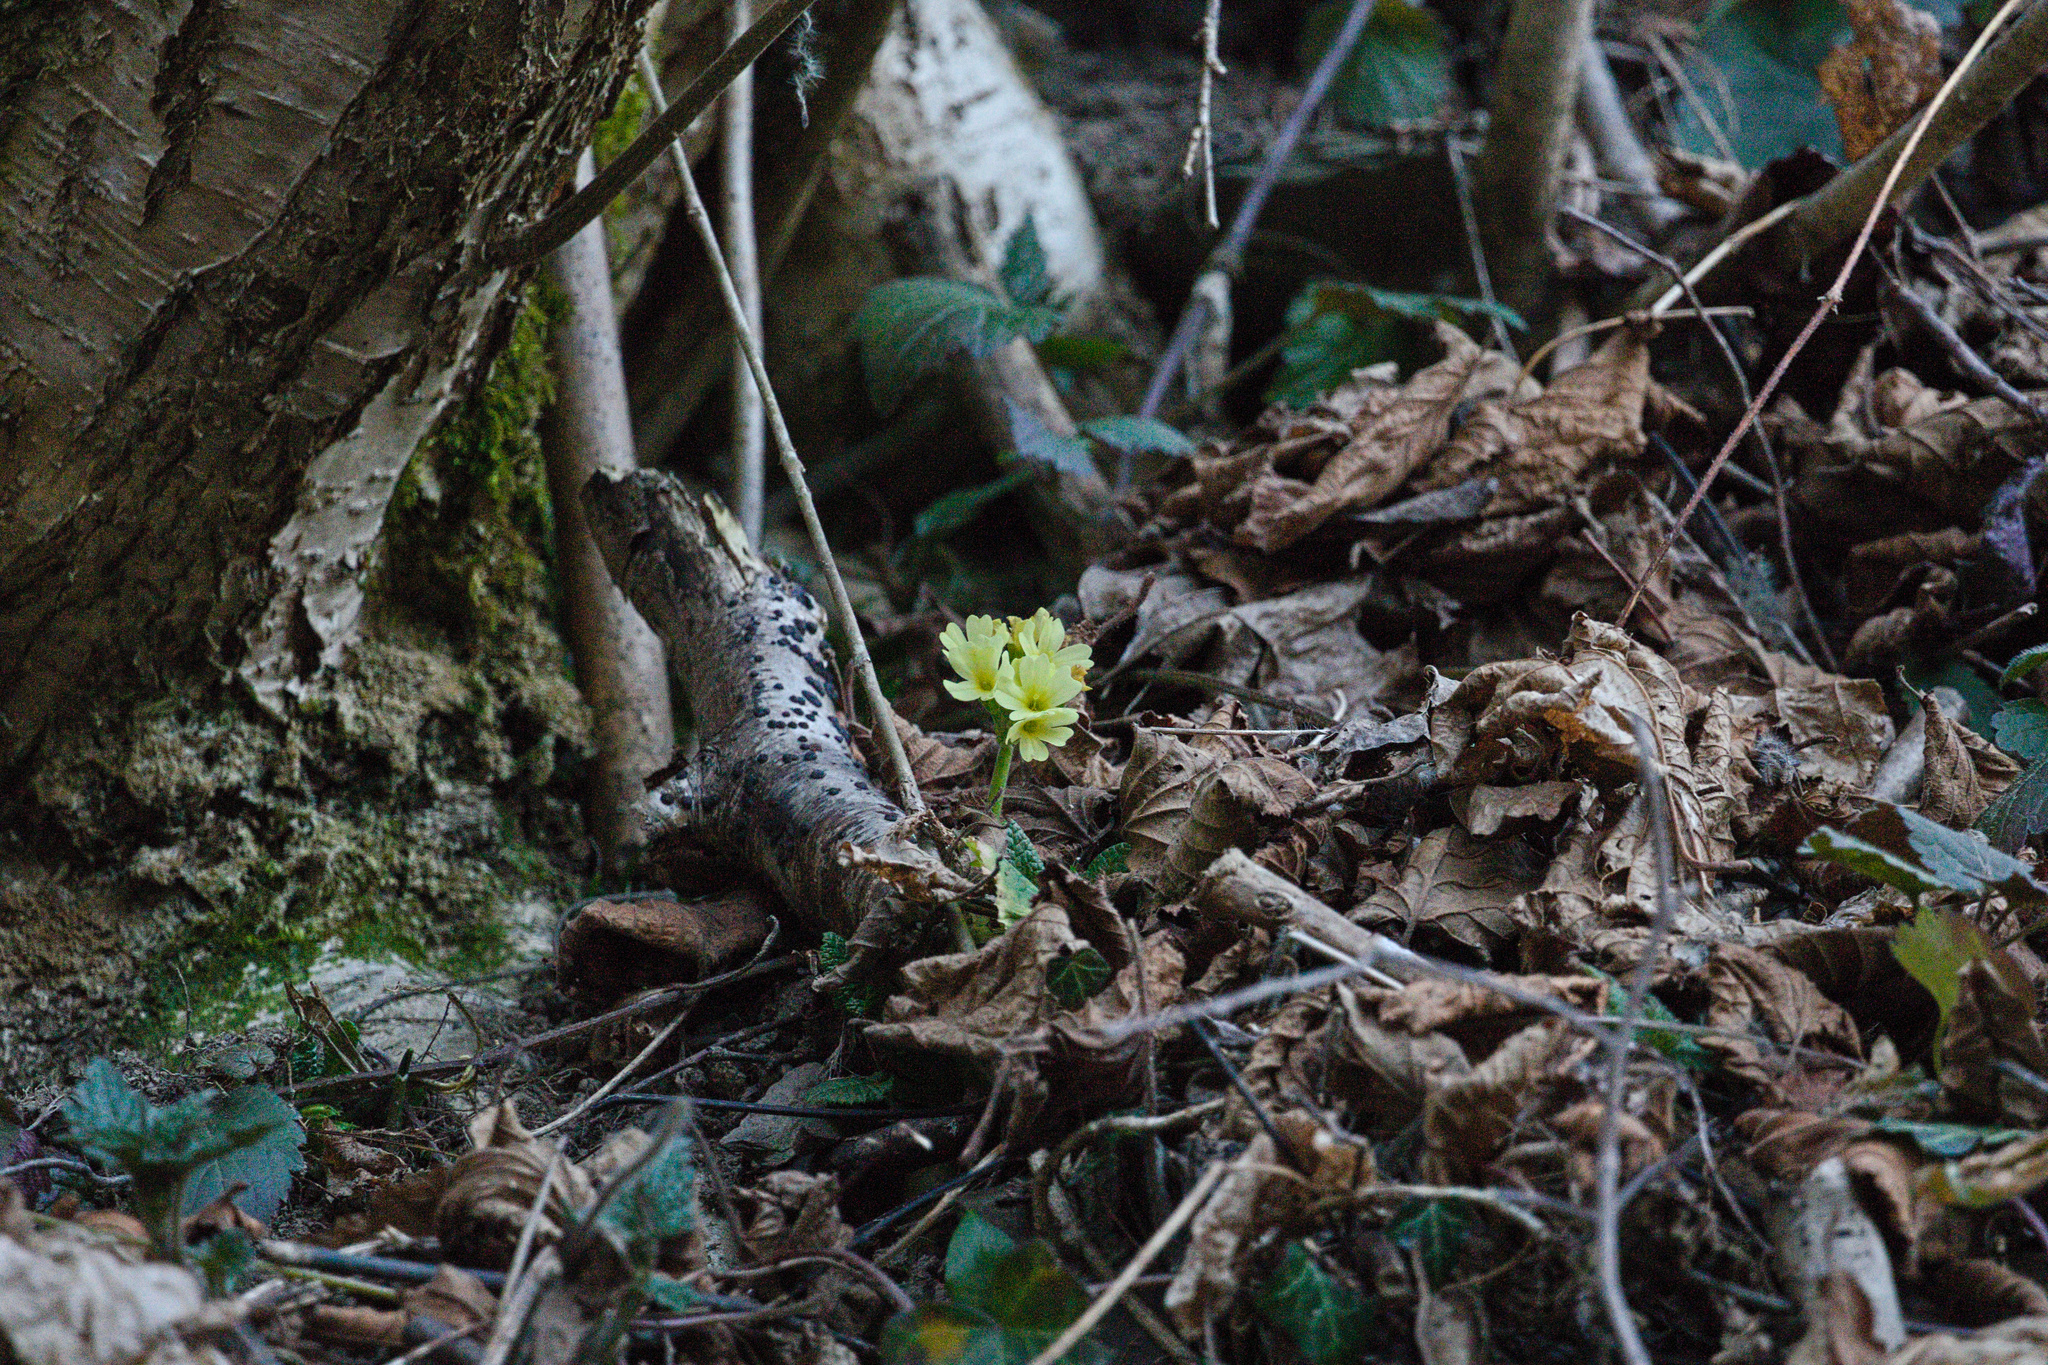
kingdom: Plantae
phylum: Tracheophyta
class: Magnoliopsida
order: Ericales
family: Primulaceae
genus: Primula
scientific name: Primula elatior
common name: Oxlip
